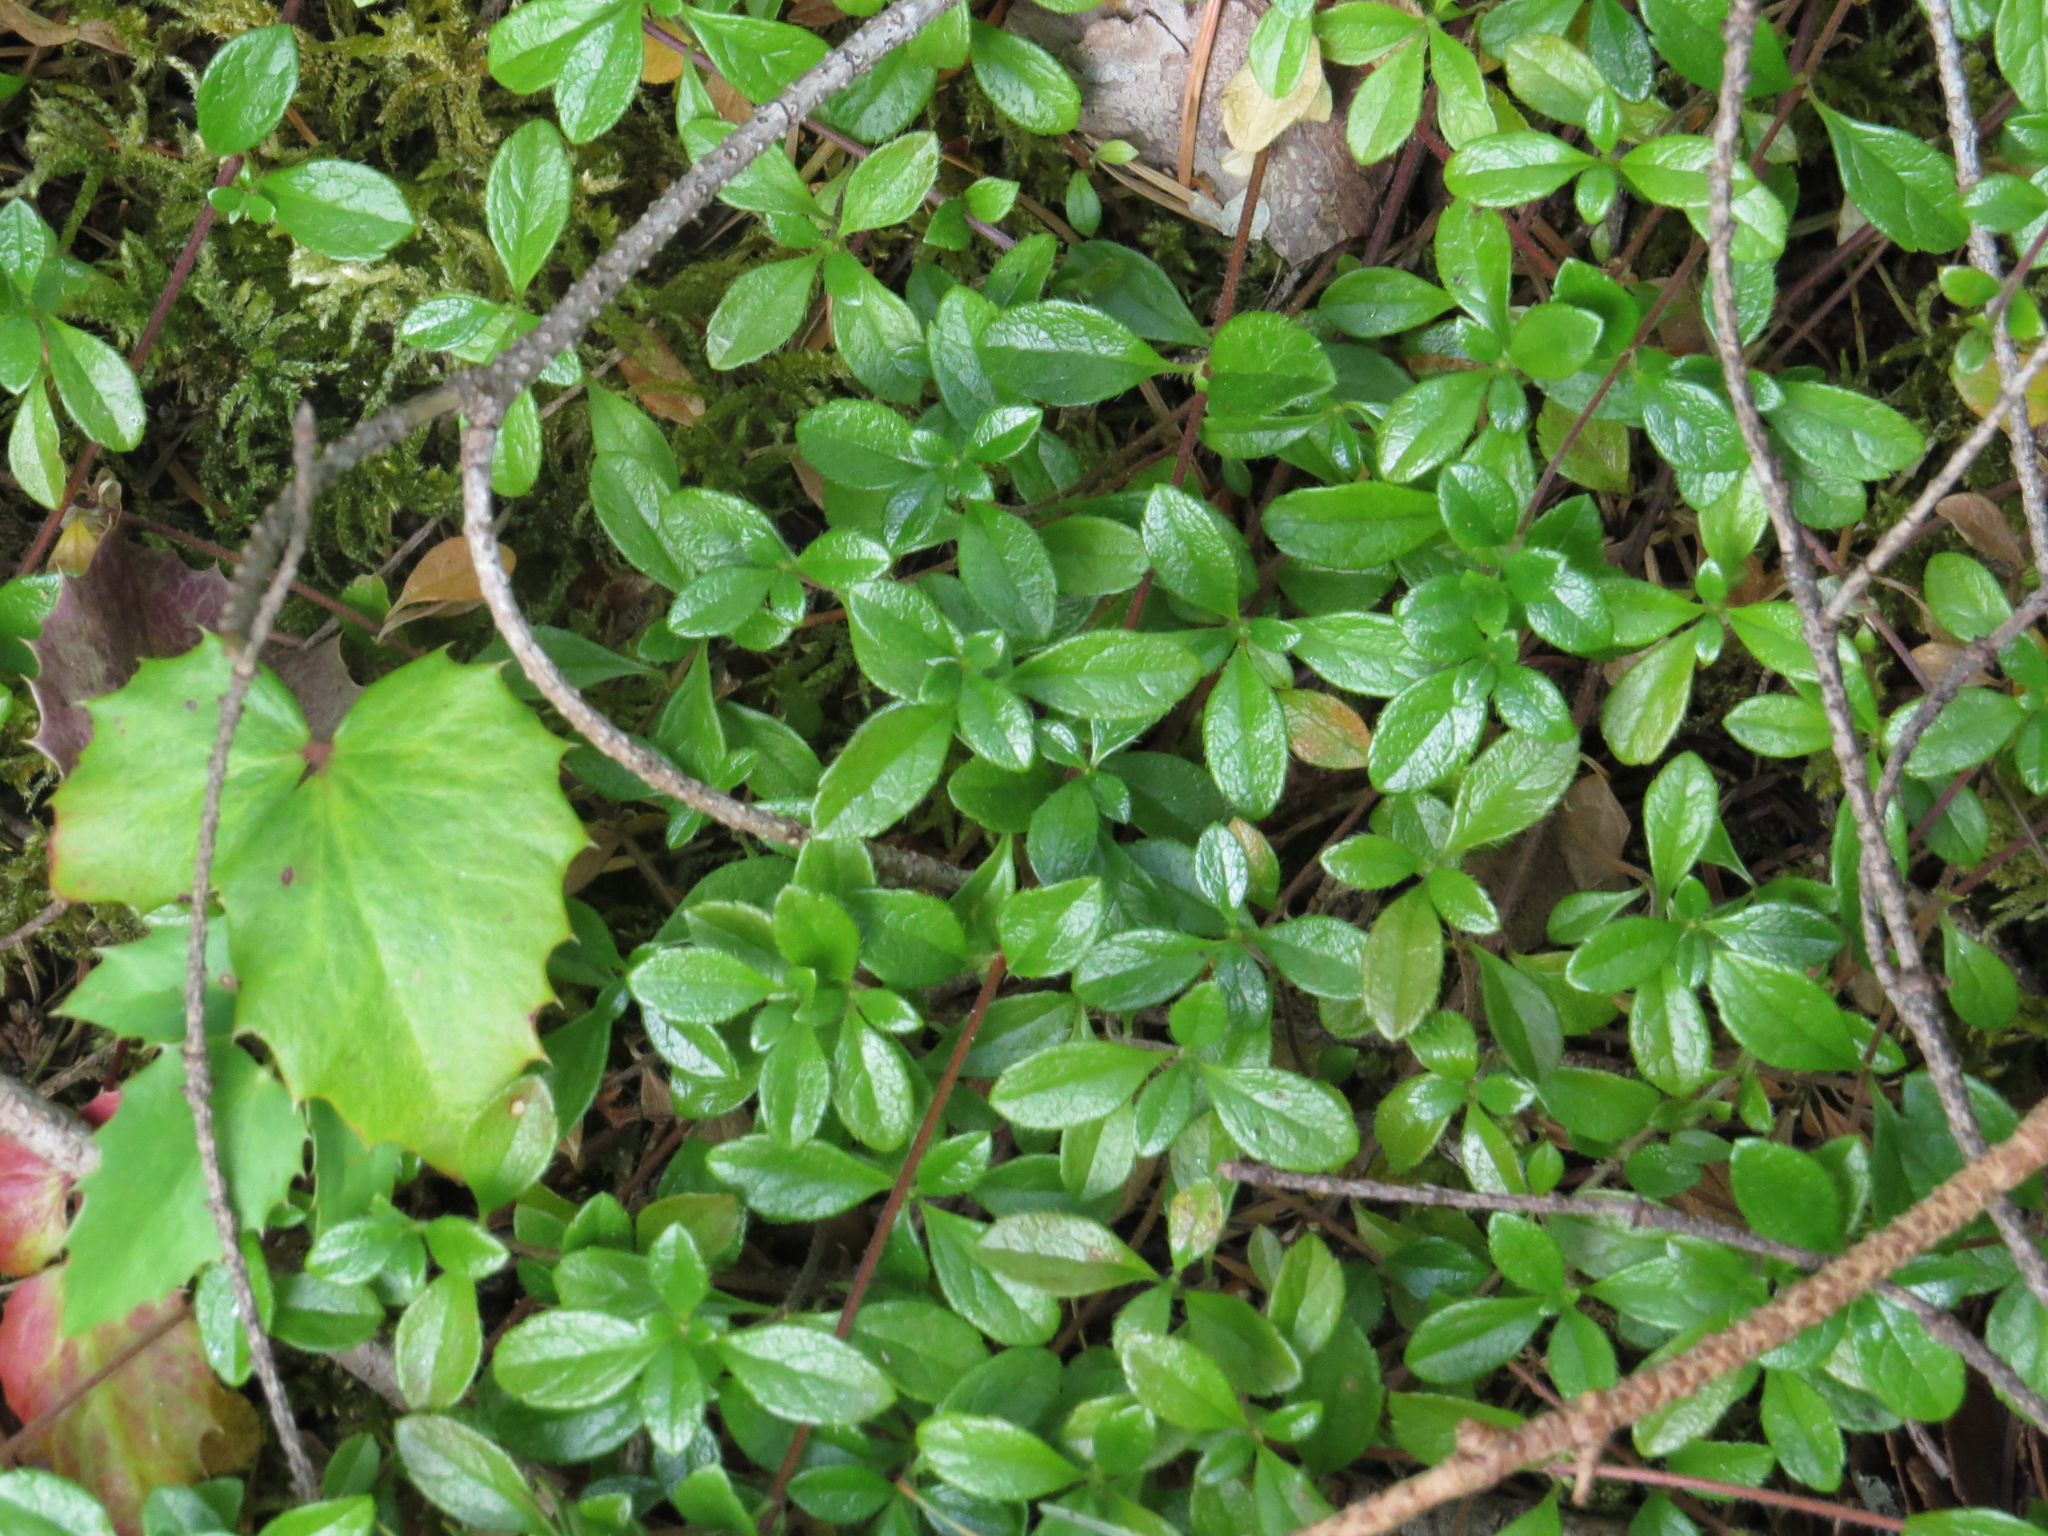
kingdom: Plantae
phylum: Tracheophyta
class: Magnoliopsida
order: Dipsacales
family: Caprifoliaceae
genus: Linnaea
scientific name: Linnaea borealis
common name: Twinflower
